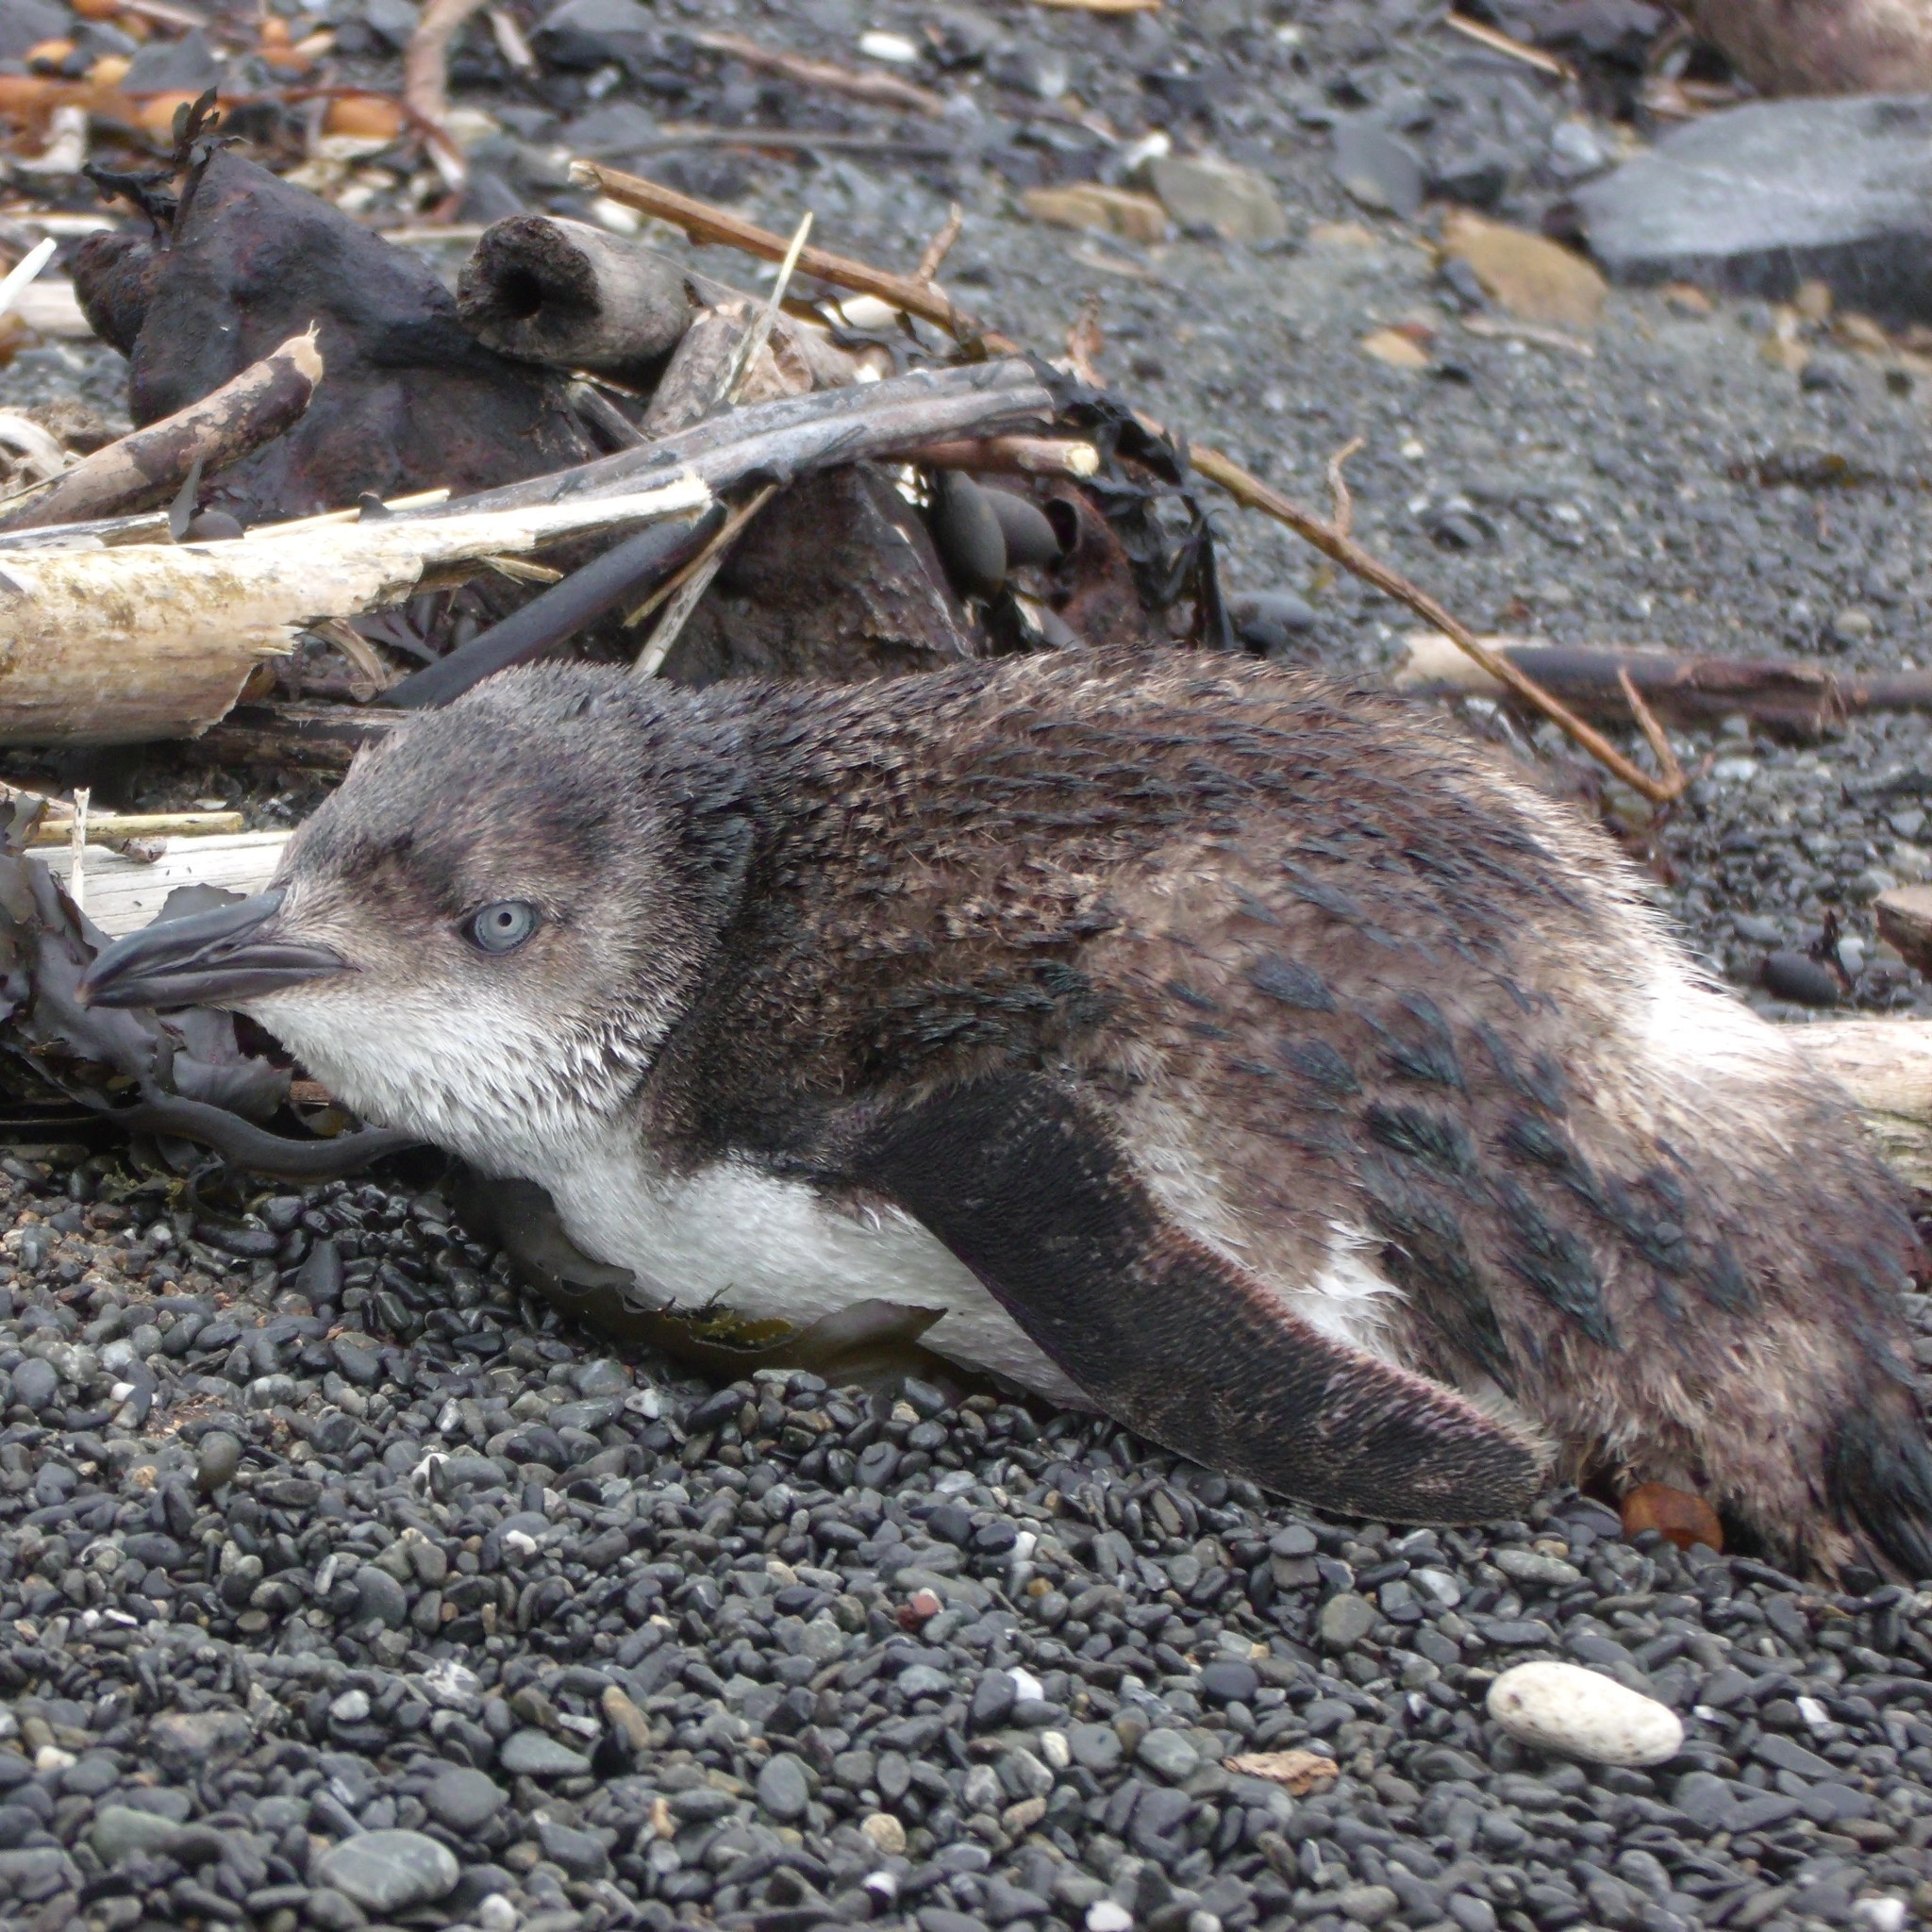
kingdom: Animalia
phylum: Chordata
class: Aves
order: Sphenisciformes
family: Spheniscidae
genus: Eudyptula
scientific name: Eudyptula minor
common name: Little penguin
